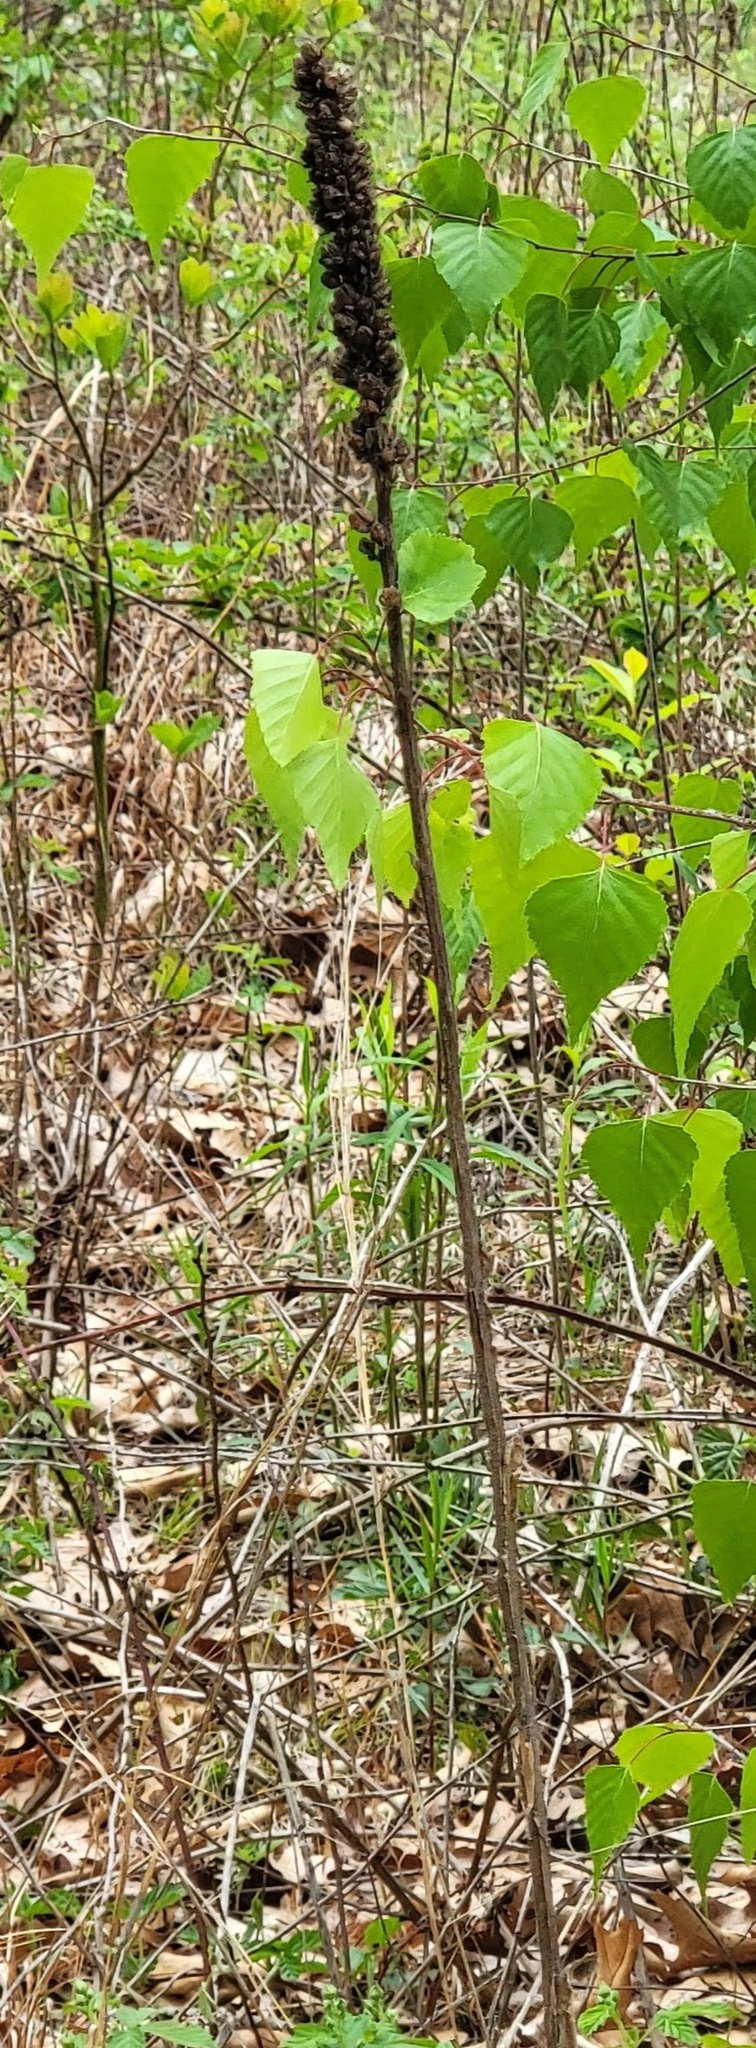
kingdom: Plantae
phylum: Tracheophyta
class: Magnoliopsida
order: Lamiales
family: Scrophulariaceae
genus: Verbascum
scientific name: Verbascum thapsus
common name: Common mullein
